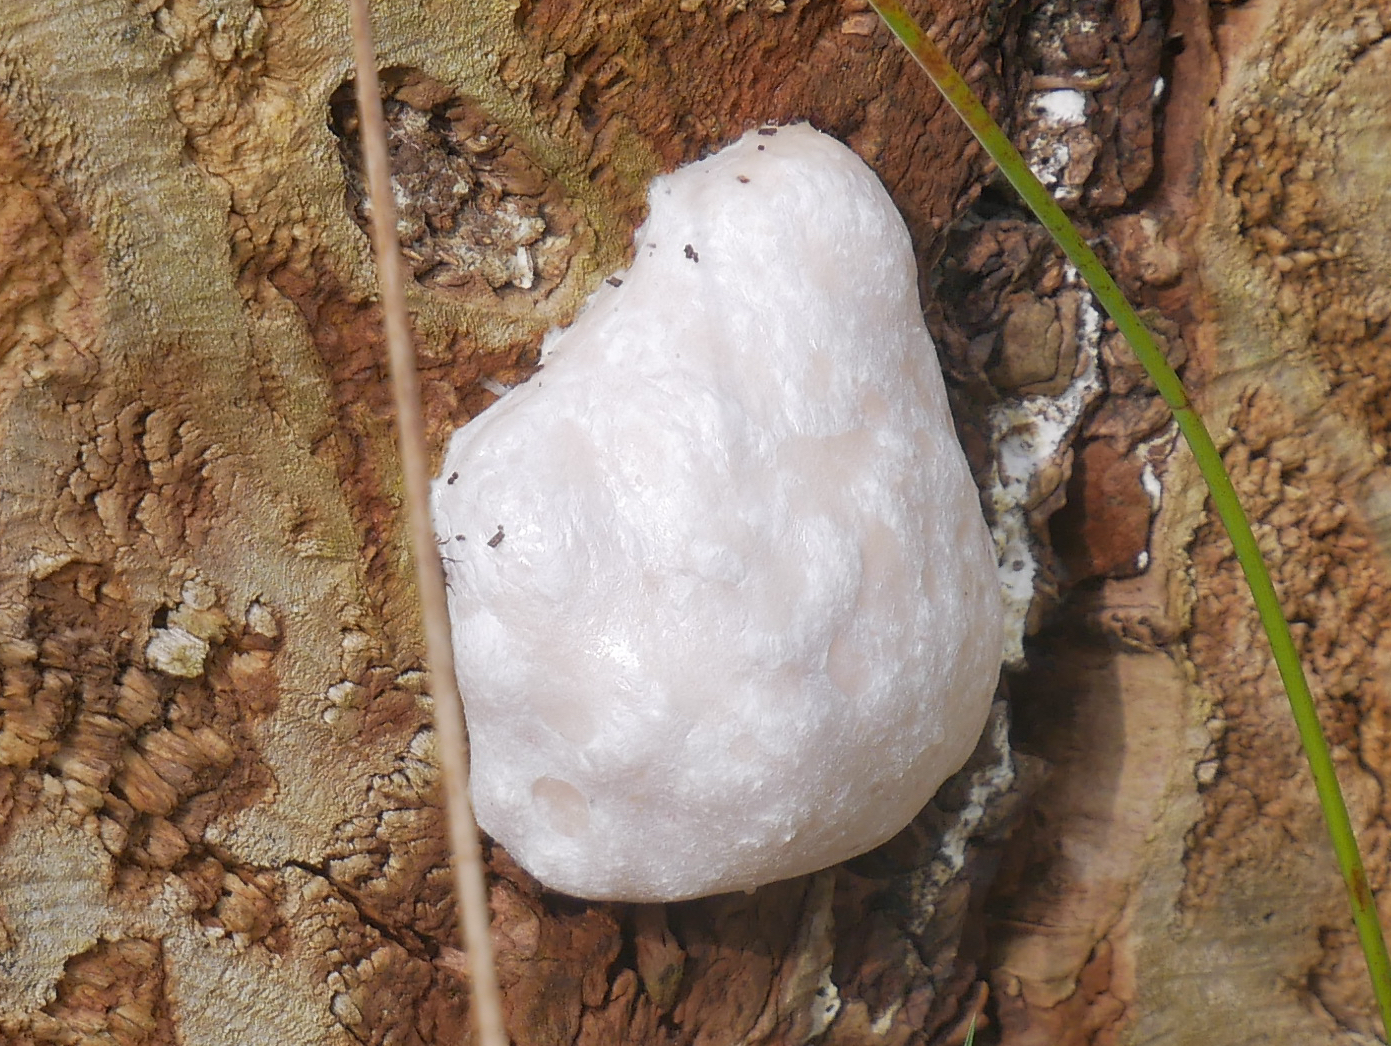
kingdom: Protozoa
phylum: Mycetozoa
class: Myxomycetes
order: Cribrariales
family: Tubiferaceae
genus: Reticularia
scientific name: Reticularia lycoperdon
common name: False puffball
